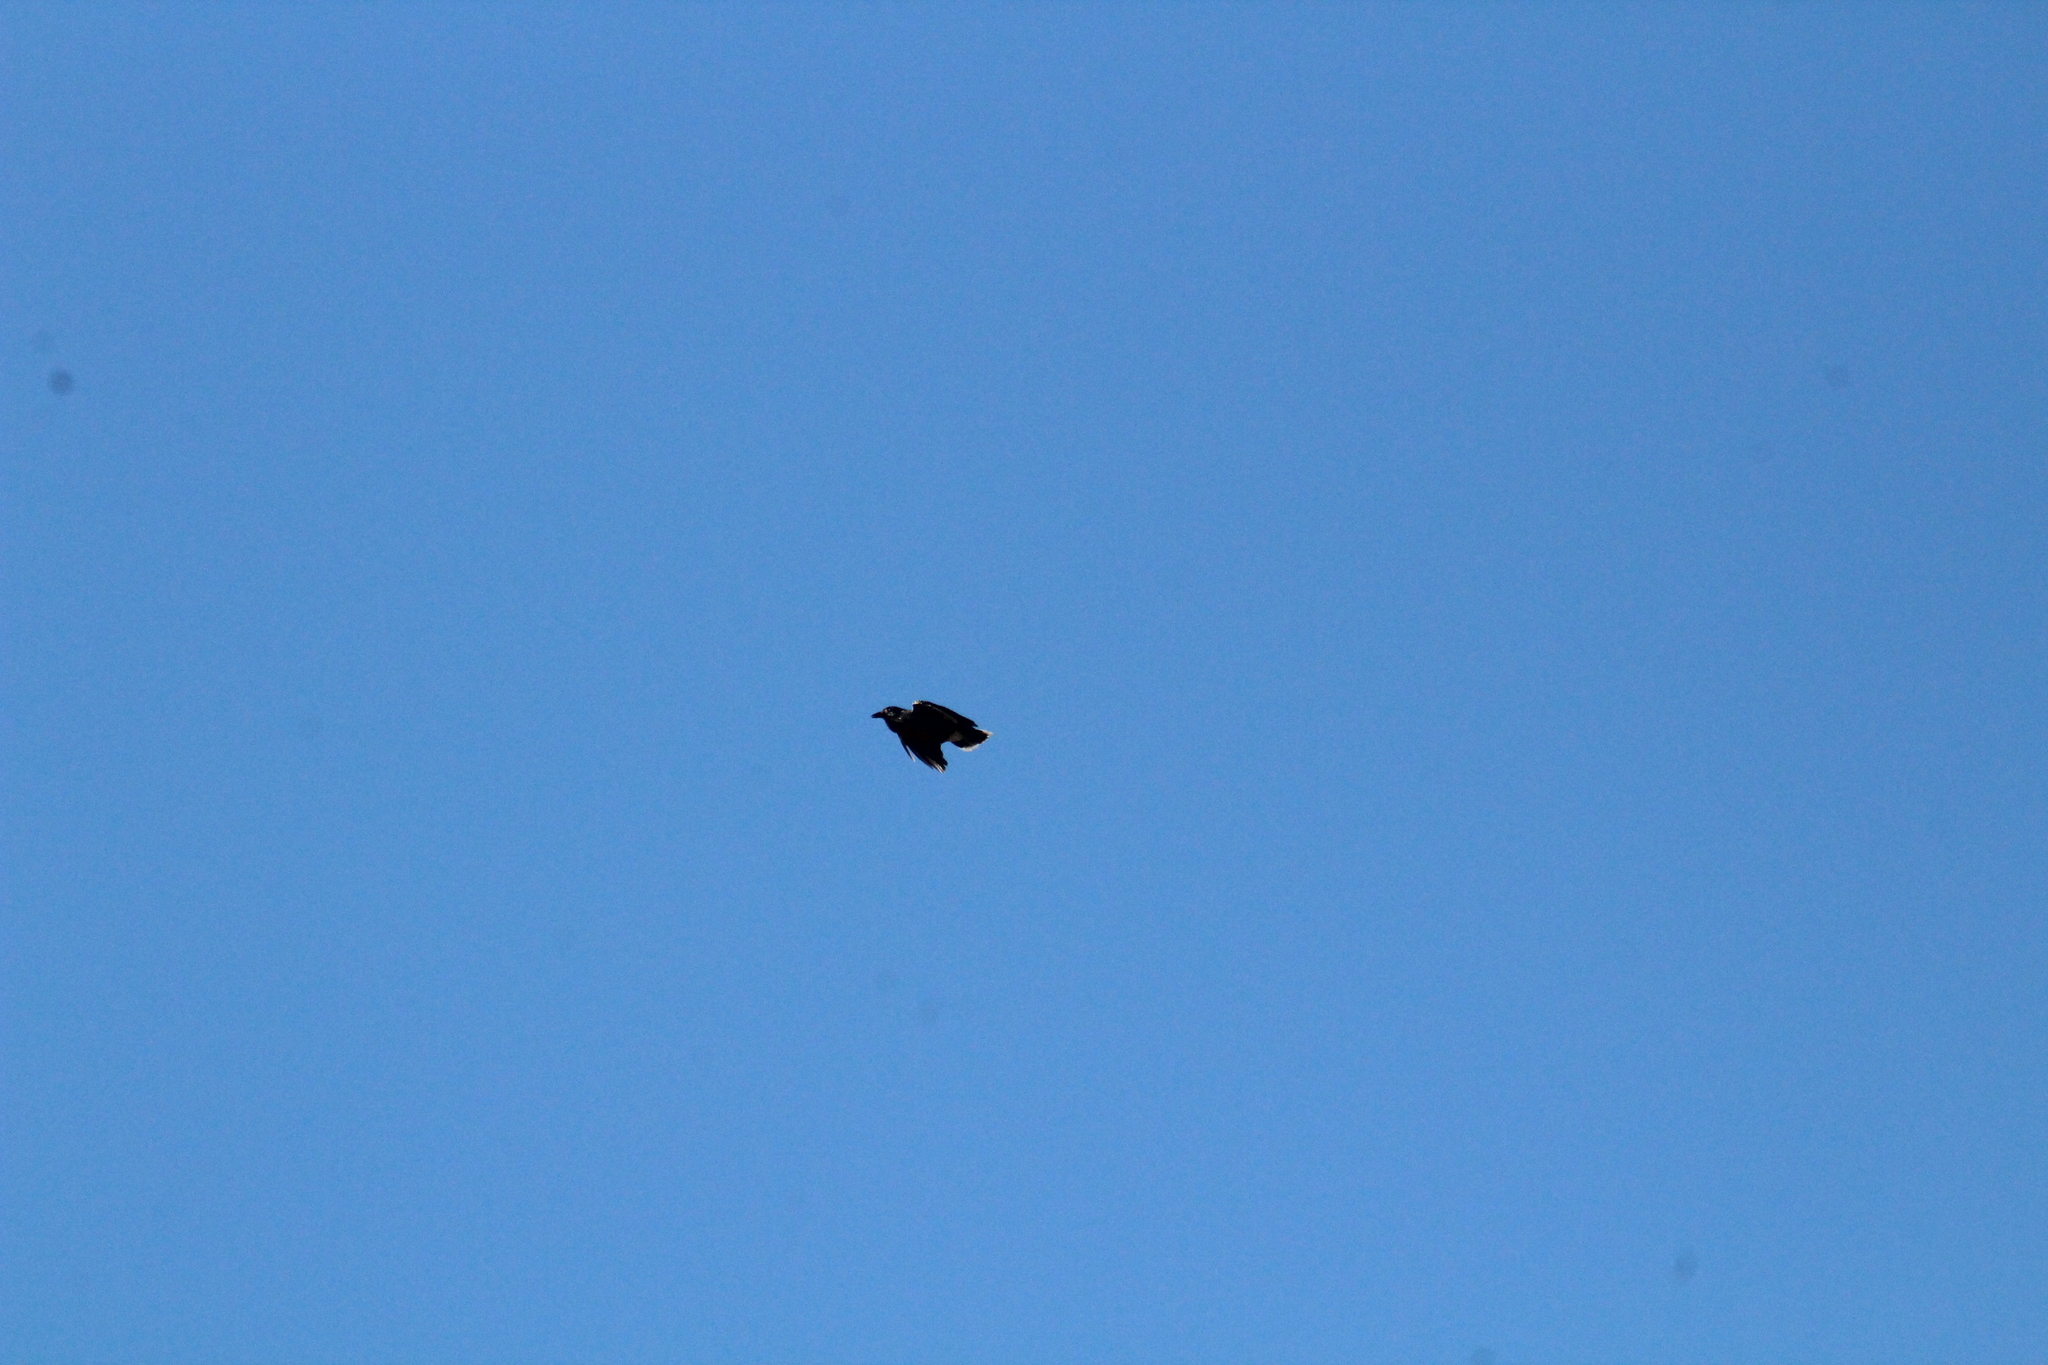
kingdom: Animalia
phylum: Chordata
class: Aves
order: Passeriformes
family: Corvidae
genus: Nucifraga
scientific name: Nucifraga caryocatactes
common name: Spotted nutcracker
